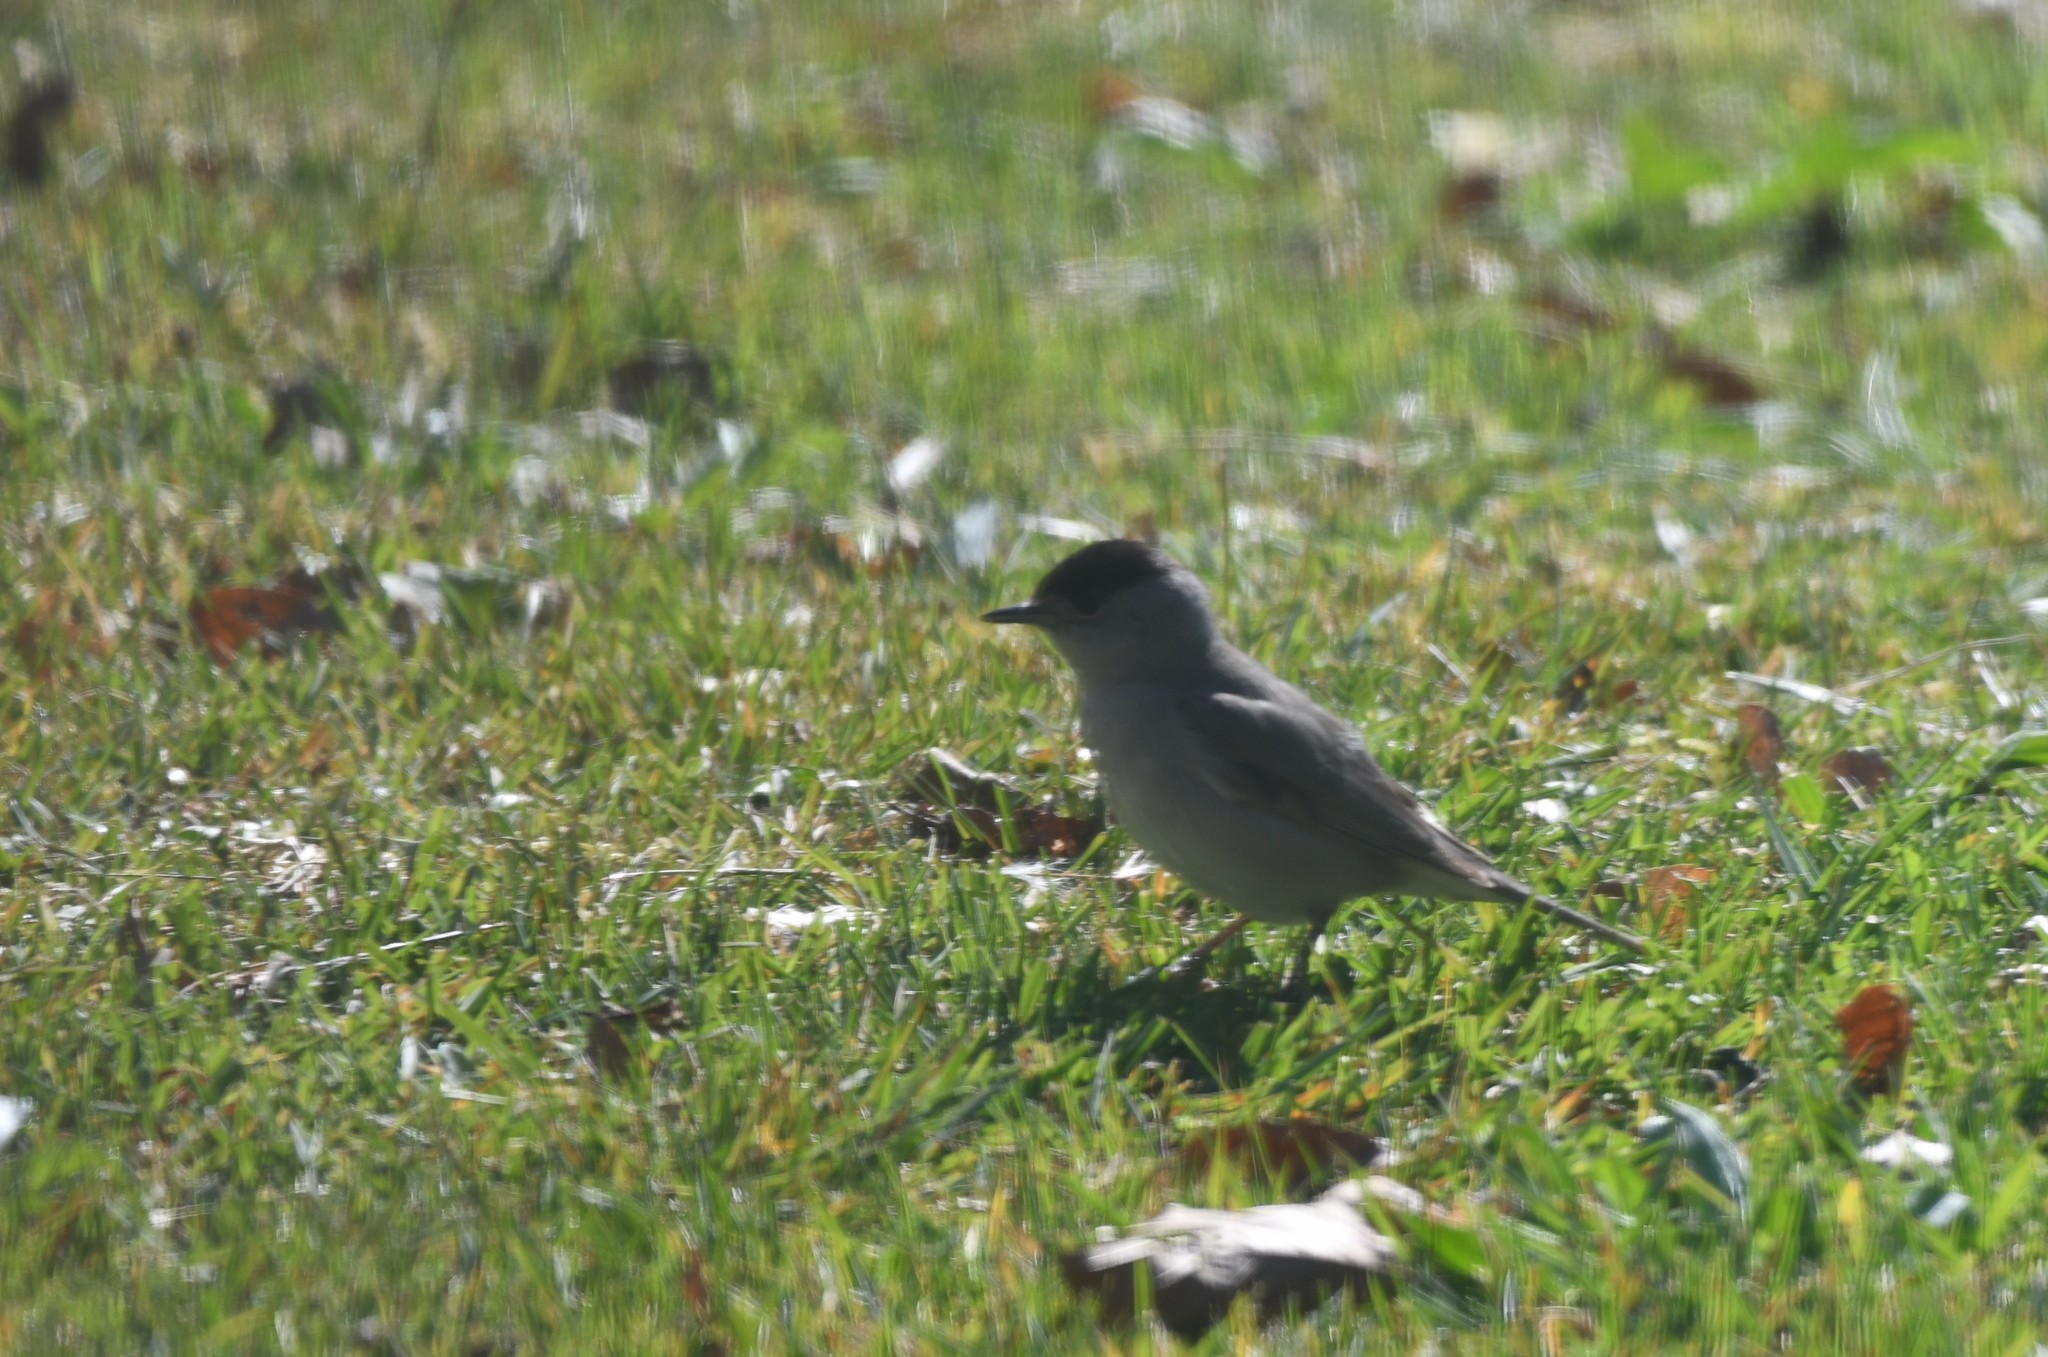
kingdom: Animalia
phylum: Chordata
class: Aves
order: Passeriformes
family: Sylviidae
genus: Sylvia
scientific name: Sylvia atricapilla
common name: Eurasian blackcap
